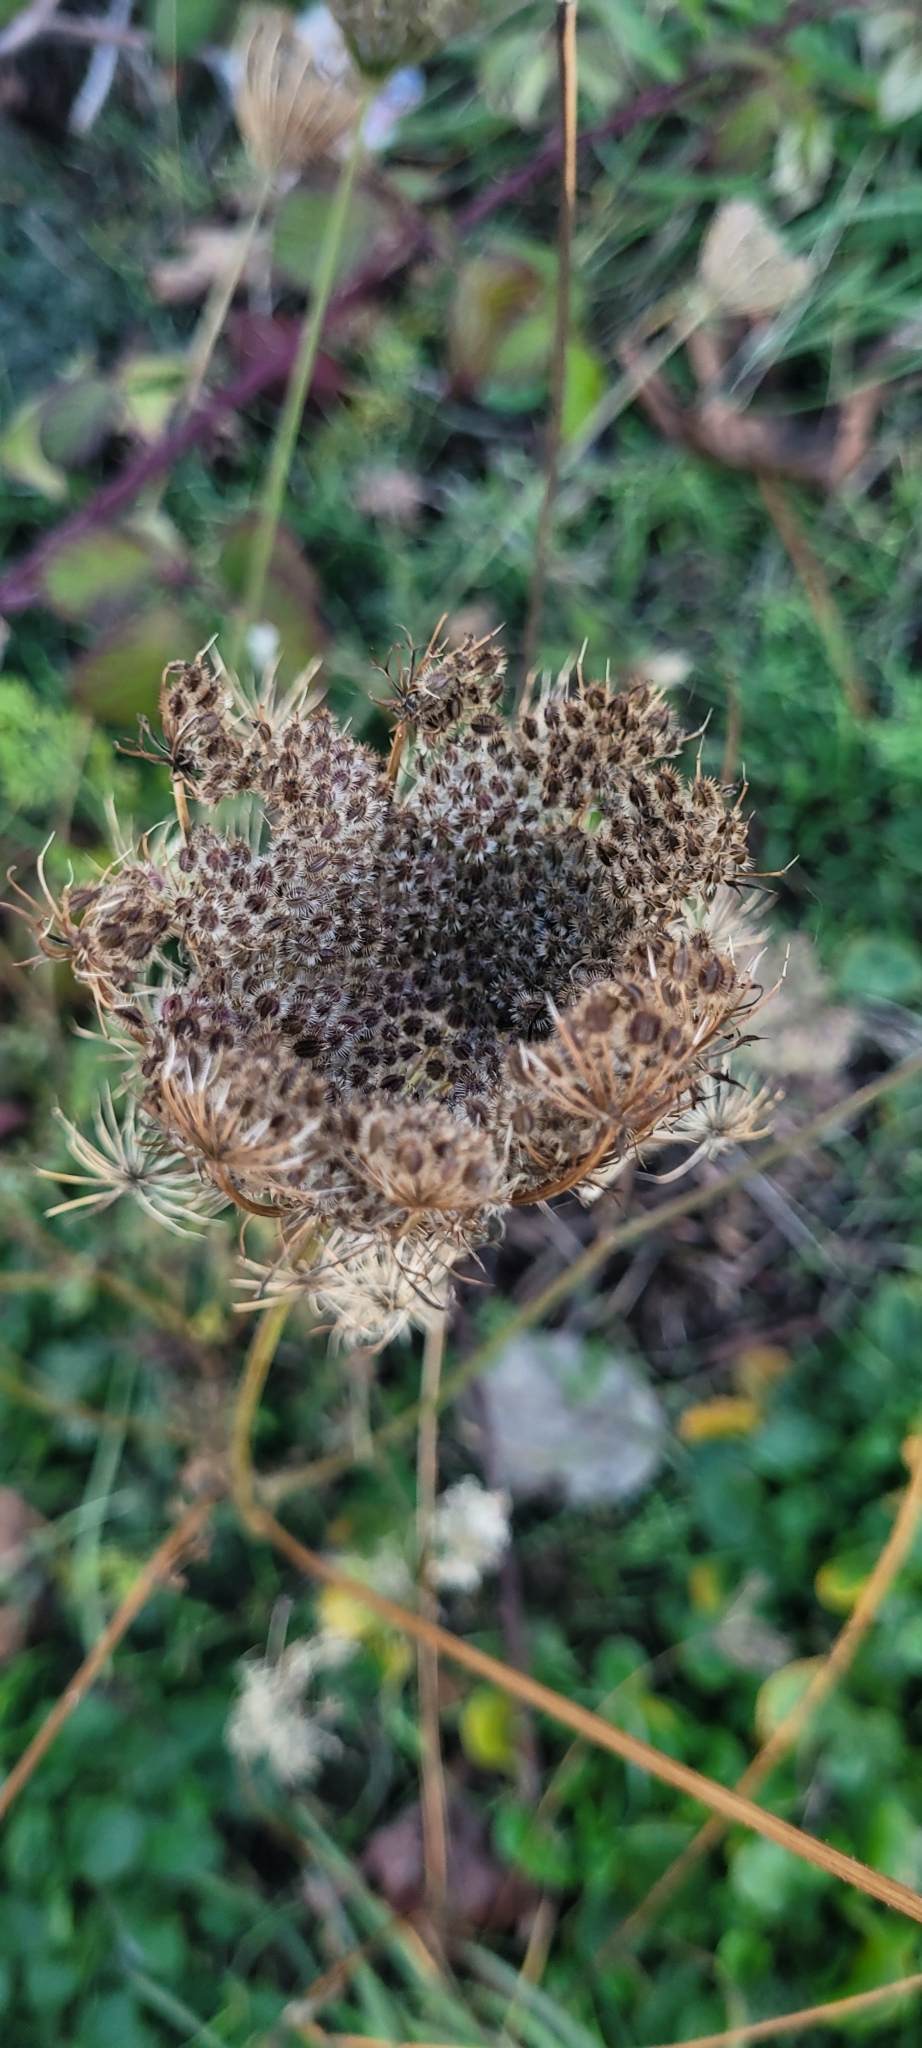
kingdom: Plantae
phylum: Tracheophyta
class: Magnoliopsida
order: Apiales
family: Apiaceae
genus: Daucus
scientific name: Daucus carota
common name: Wild carrot
